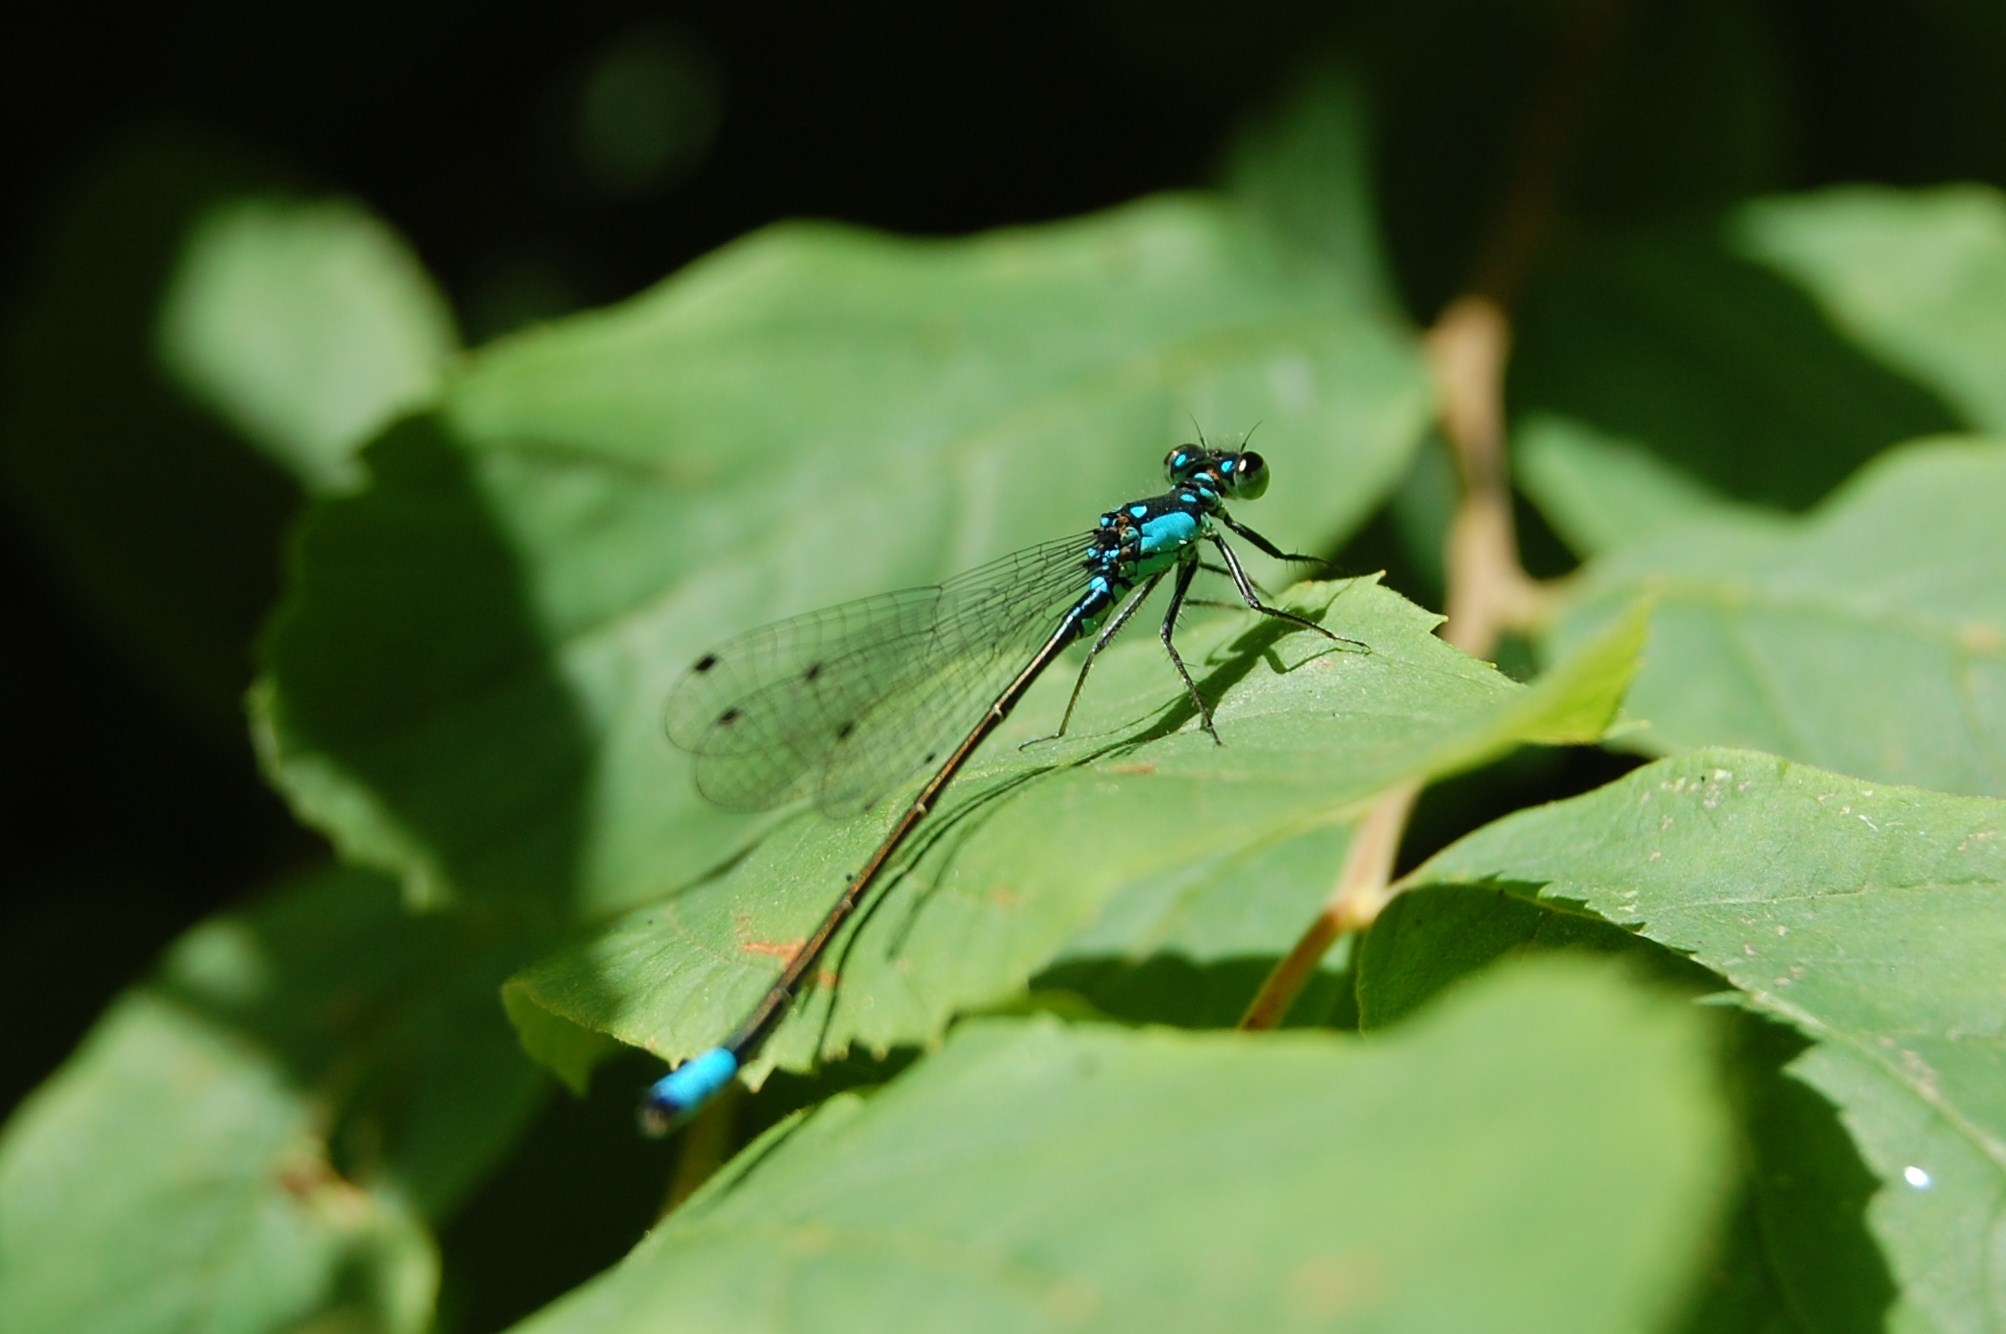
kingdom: Animalia
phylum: Arthropoda
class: Insecta
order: Odonata
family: Coenagrionidae
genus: Ischnura
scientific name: Ischnura cervula
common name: Pacific forktail
